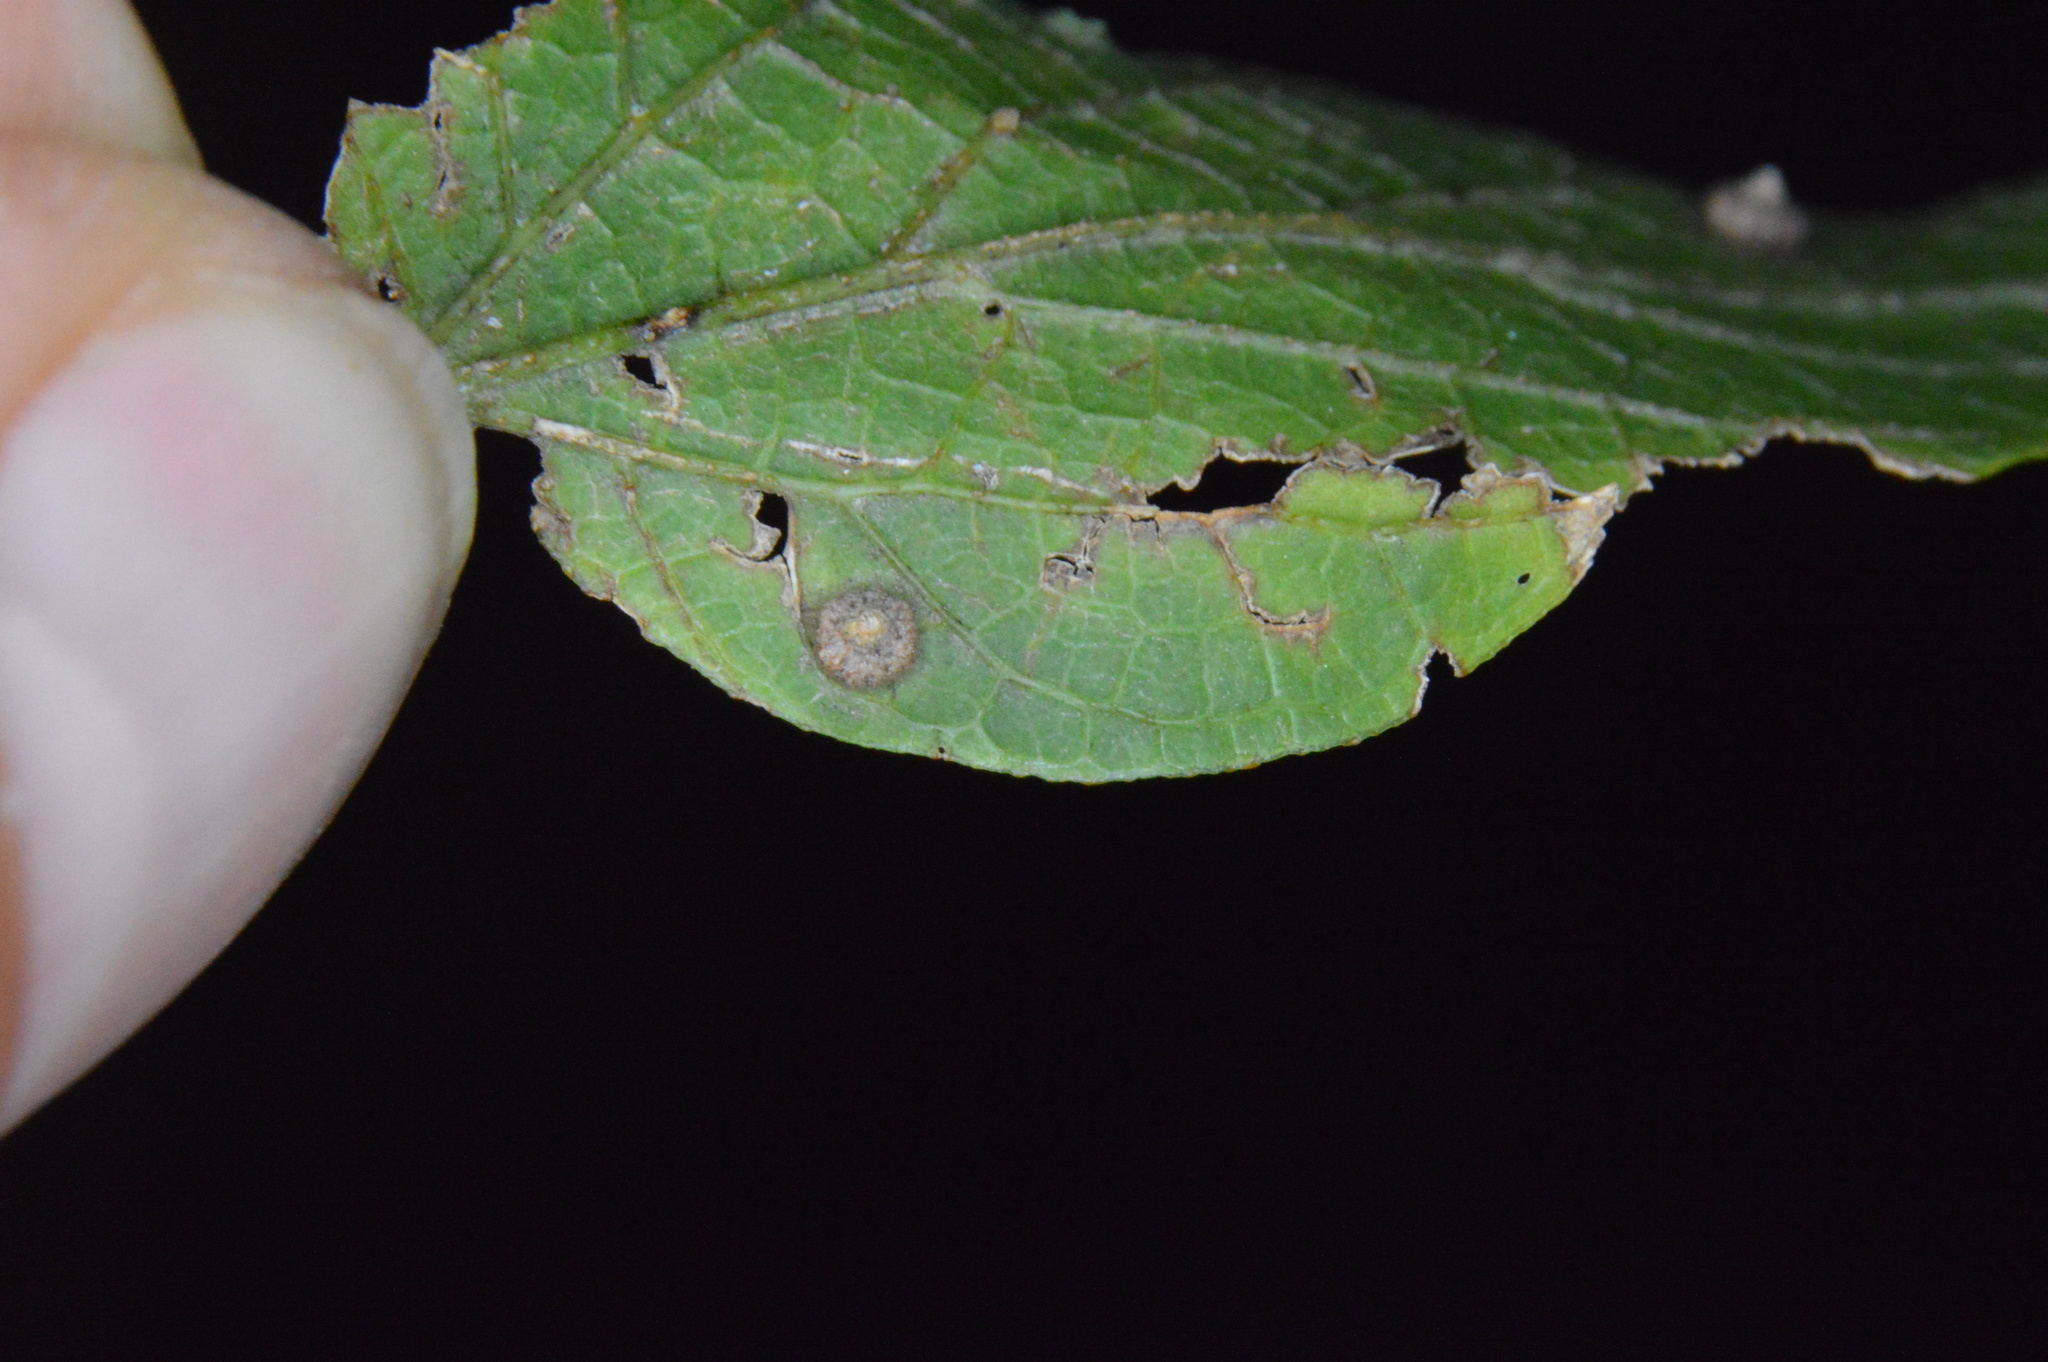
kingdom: Animalia
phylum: Arthropoda
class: Insecta
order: Diptera
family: Cecidomyiidae
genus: Celticecis
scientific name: Celticecis capsularis
